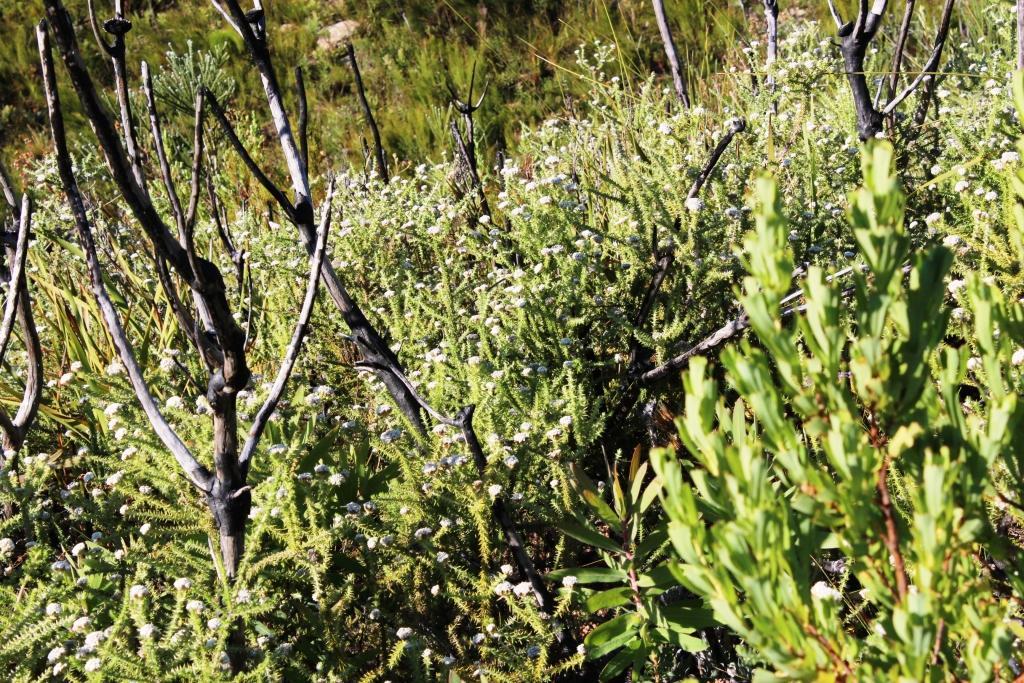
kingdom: Plantae
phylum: Tracheophyta
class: Magnoliopsida
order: Asterales
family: Asteraceae
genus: Metalasia
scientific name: Metalasia cephalotes
